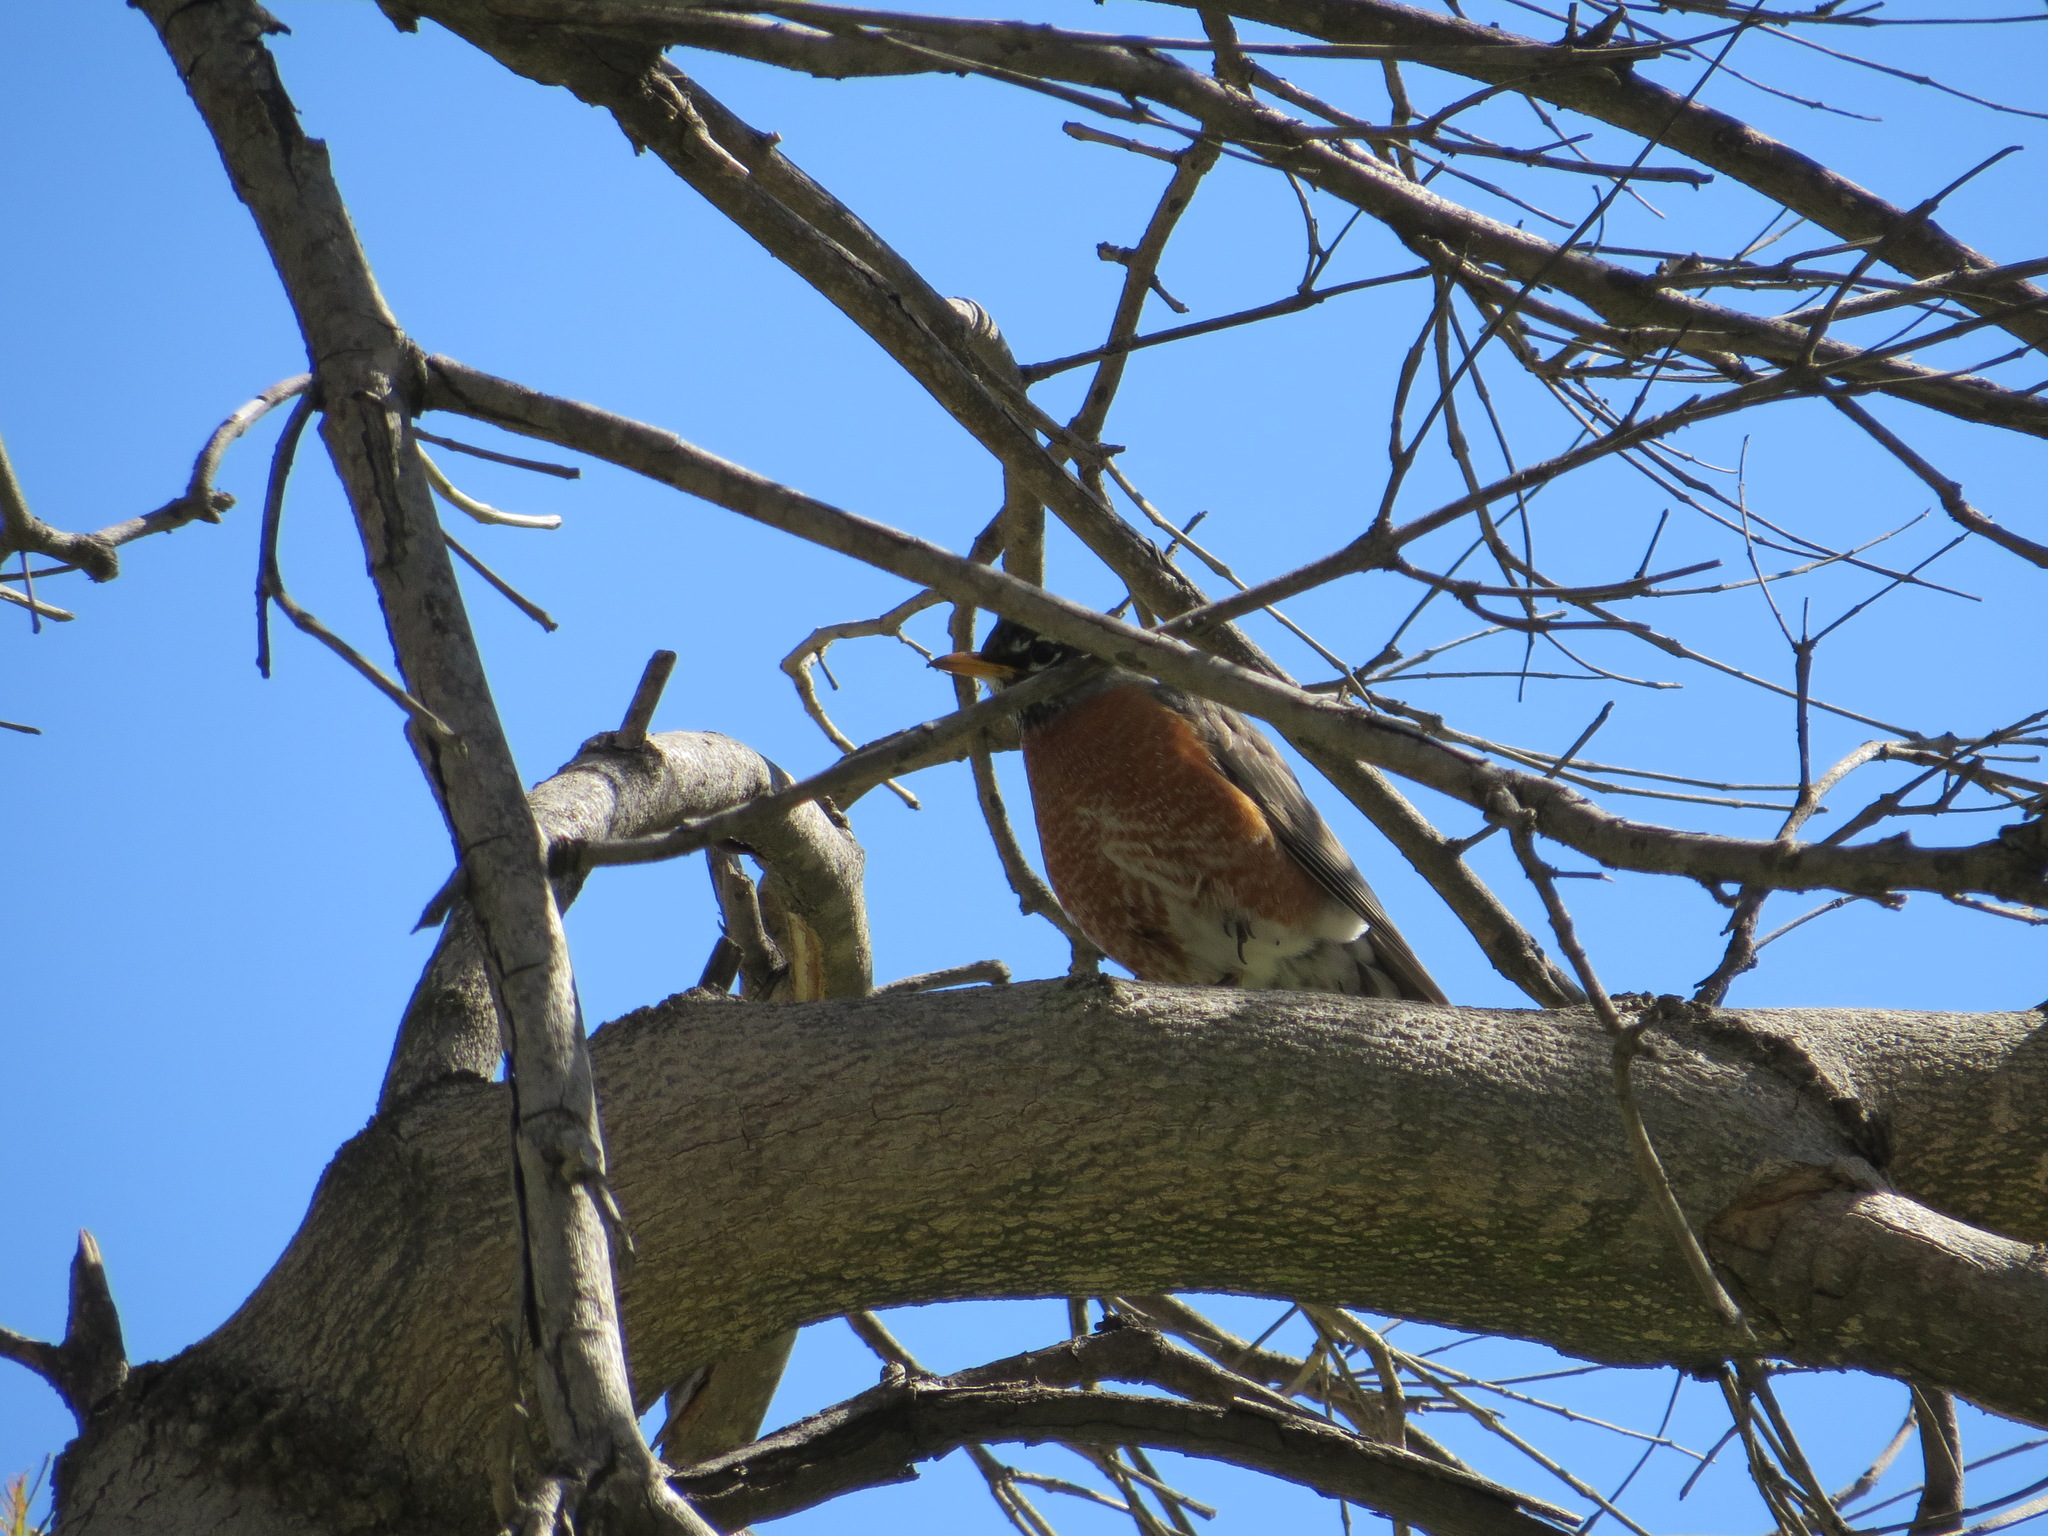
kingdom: Animalia
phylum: Chordata
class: Aves
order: Passeriformes
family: Turdidae
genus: Turdus
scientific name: Turdus migratorius
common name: American robin
